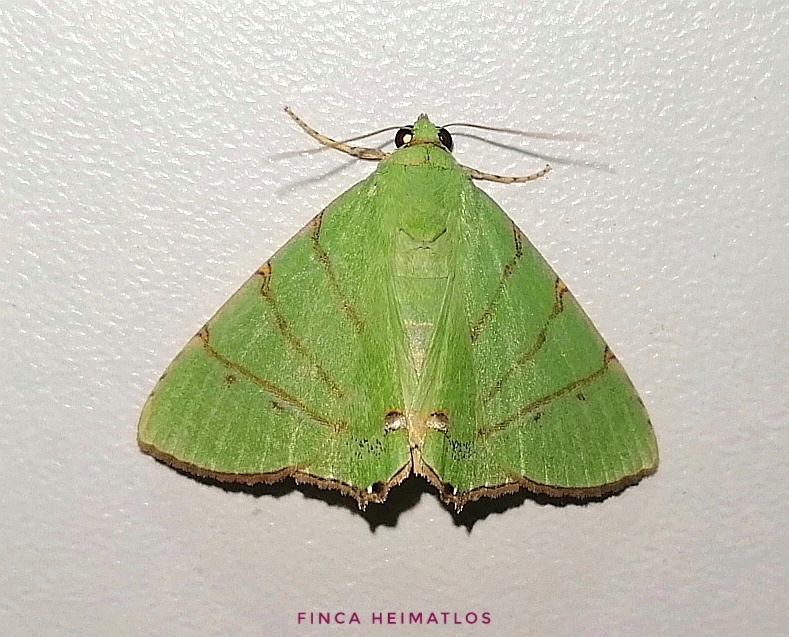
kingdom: Animalia
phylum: Arthropoda
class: Insecta
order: Lepidoptera
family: Erebidae
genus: Eulepidotis
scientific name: Eulepidotis ilyrias
